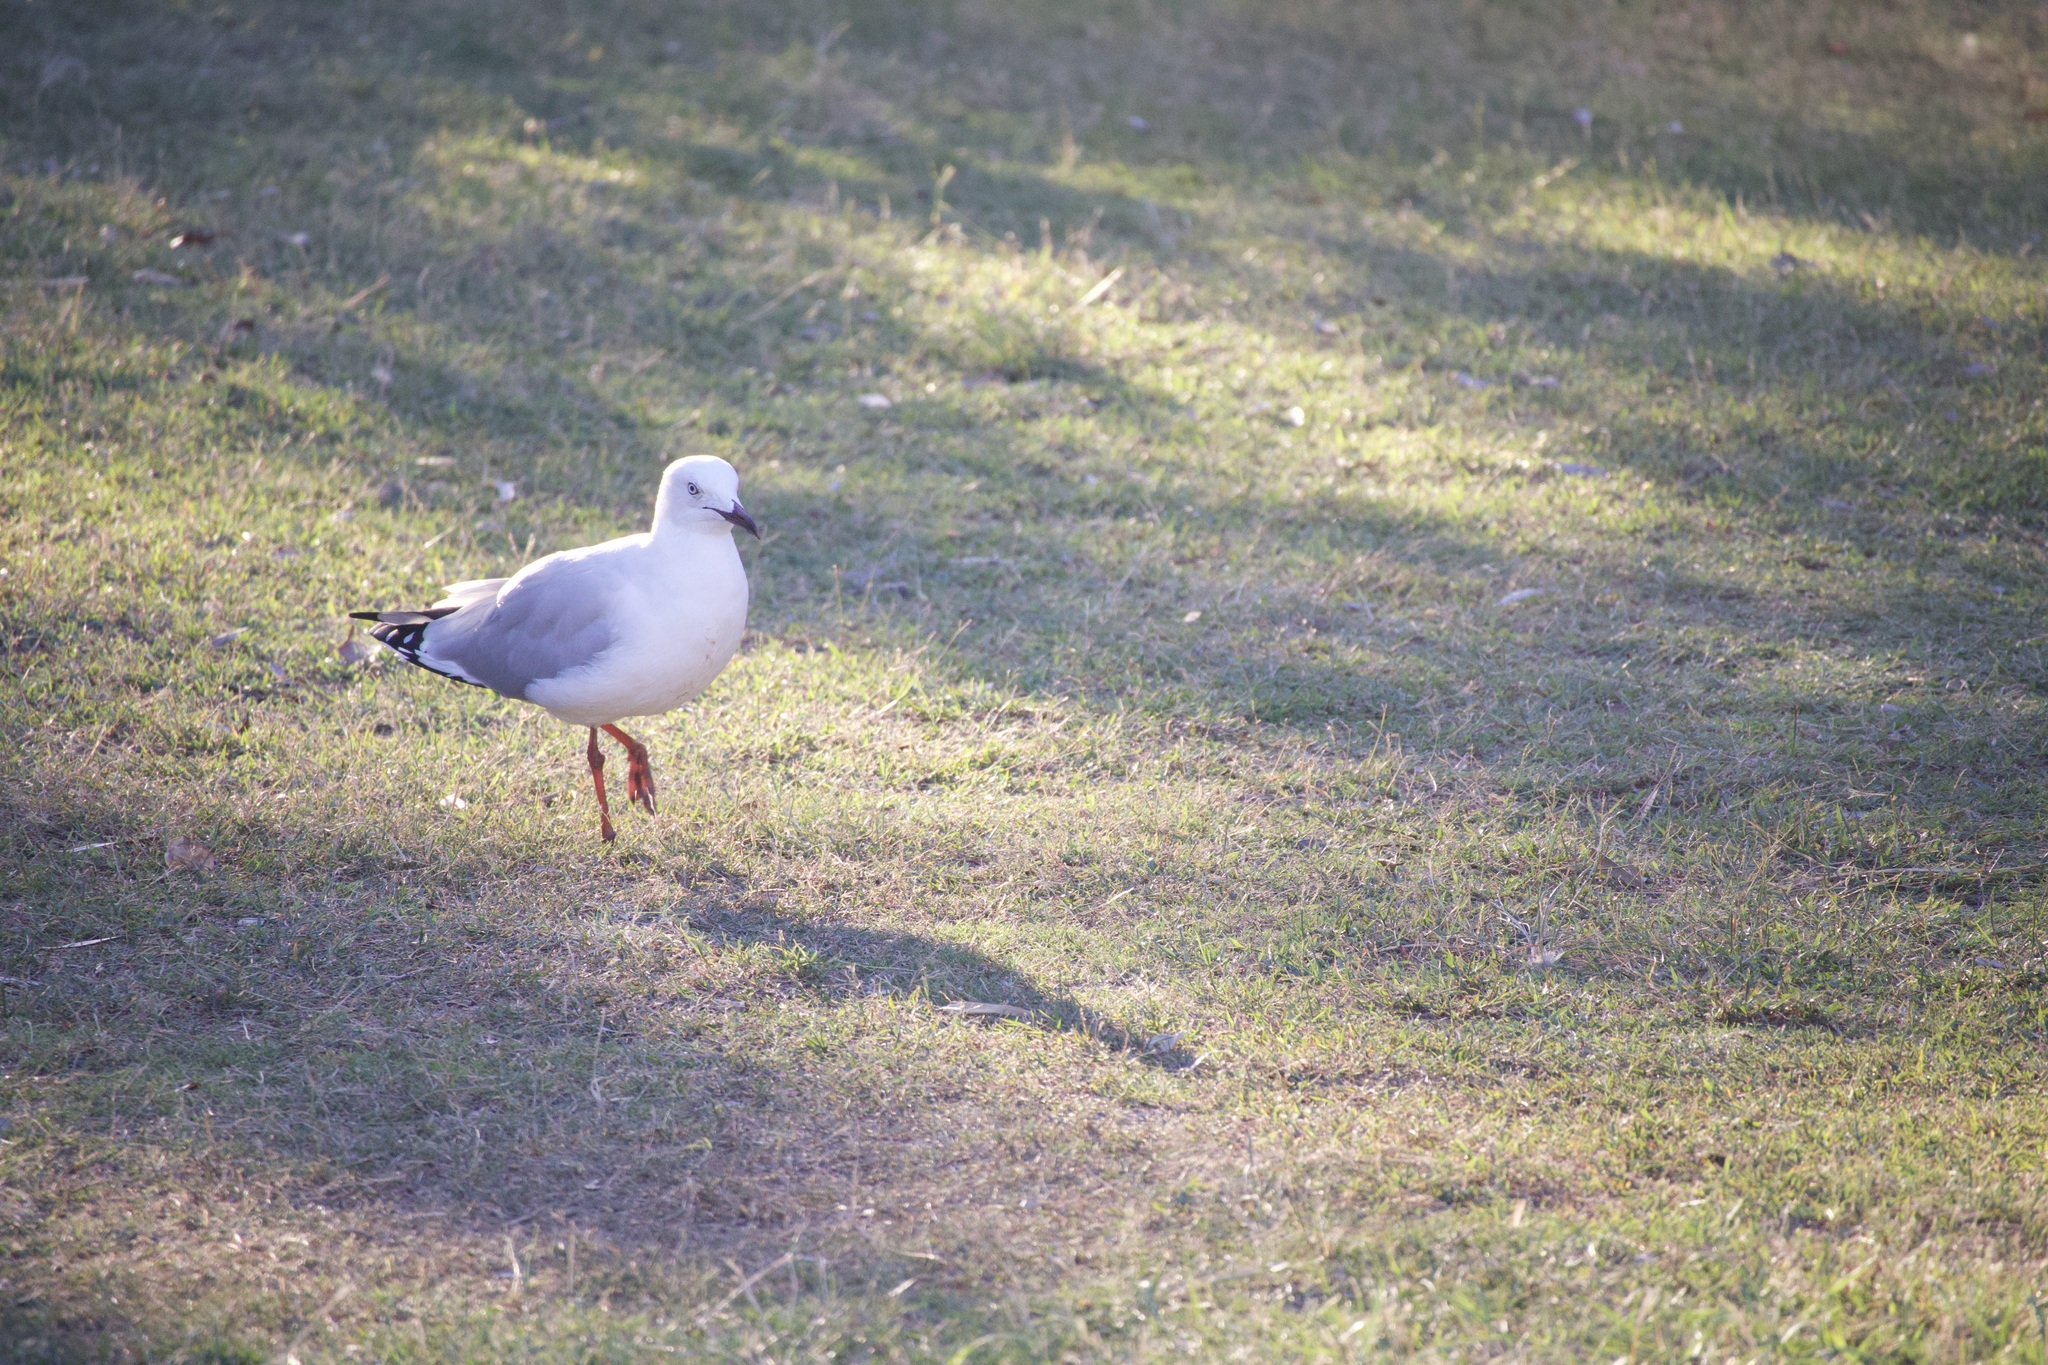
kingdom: Animalia
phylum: Chordata
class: Aves
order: Charadriiformes
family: Laridae
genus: Chroicocephalus
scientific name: Chroicocephalus novaehollandiae
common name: Silver gull
